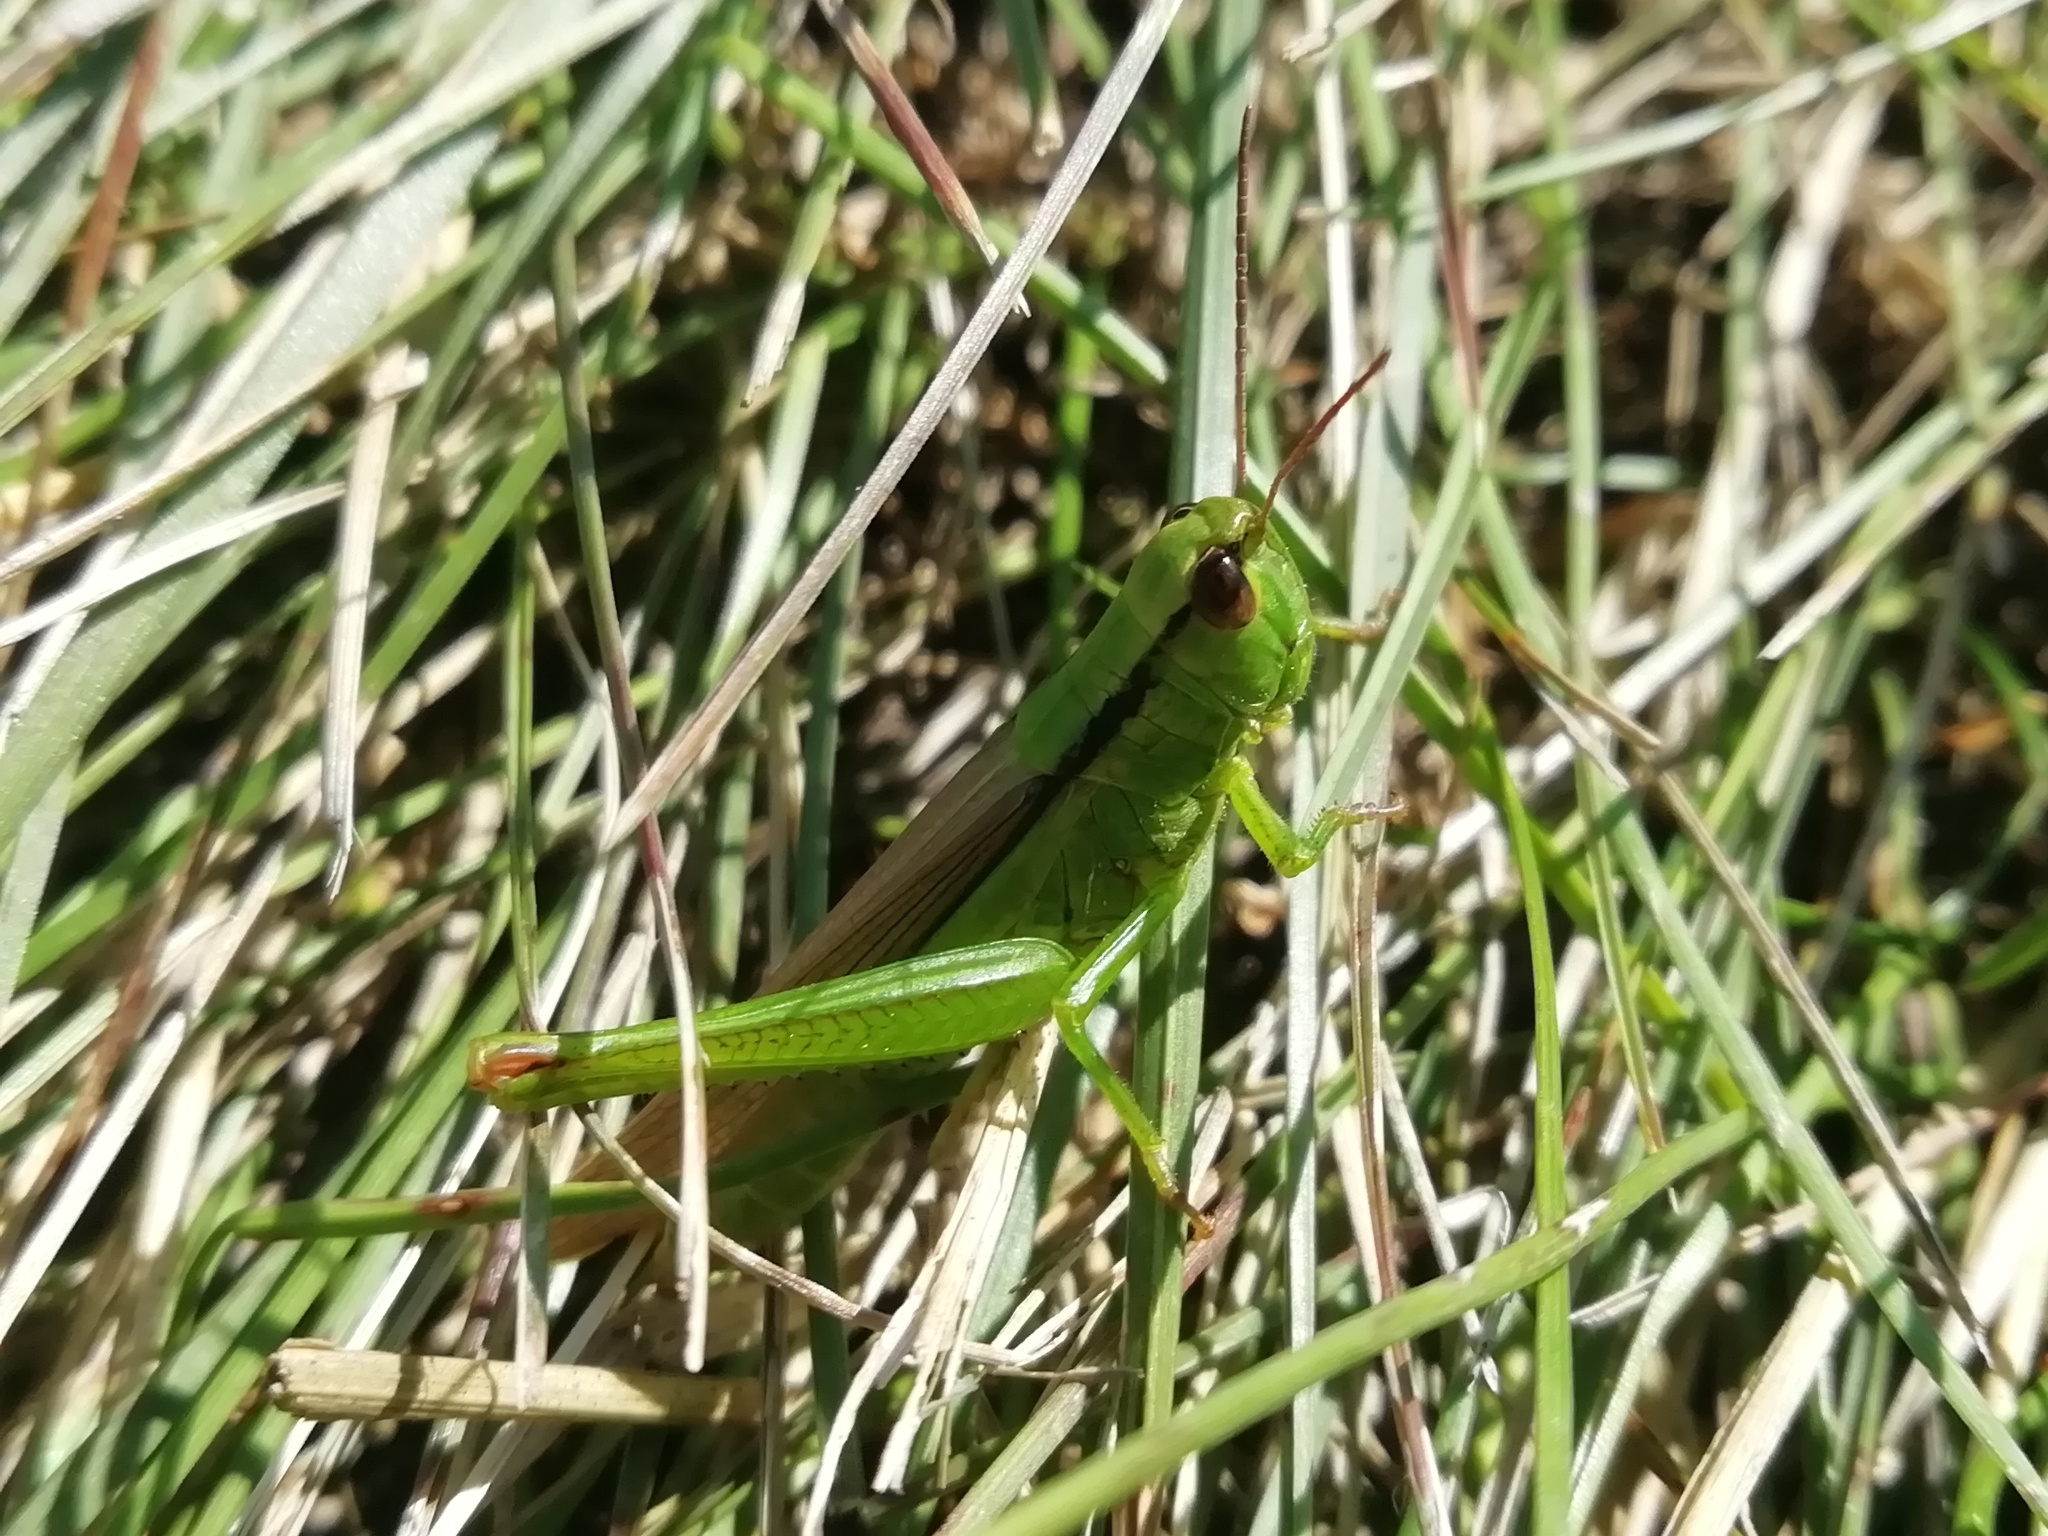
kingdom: Animalia
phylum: Arthropoda
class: Insecta
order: Orthoptera
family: Acrididae
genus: Mecostethus
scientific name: Mecostethus parapleurus
